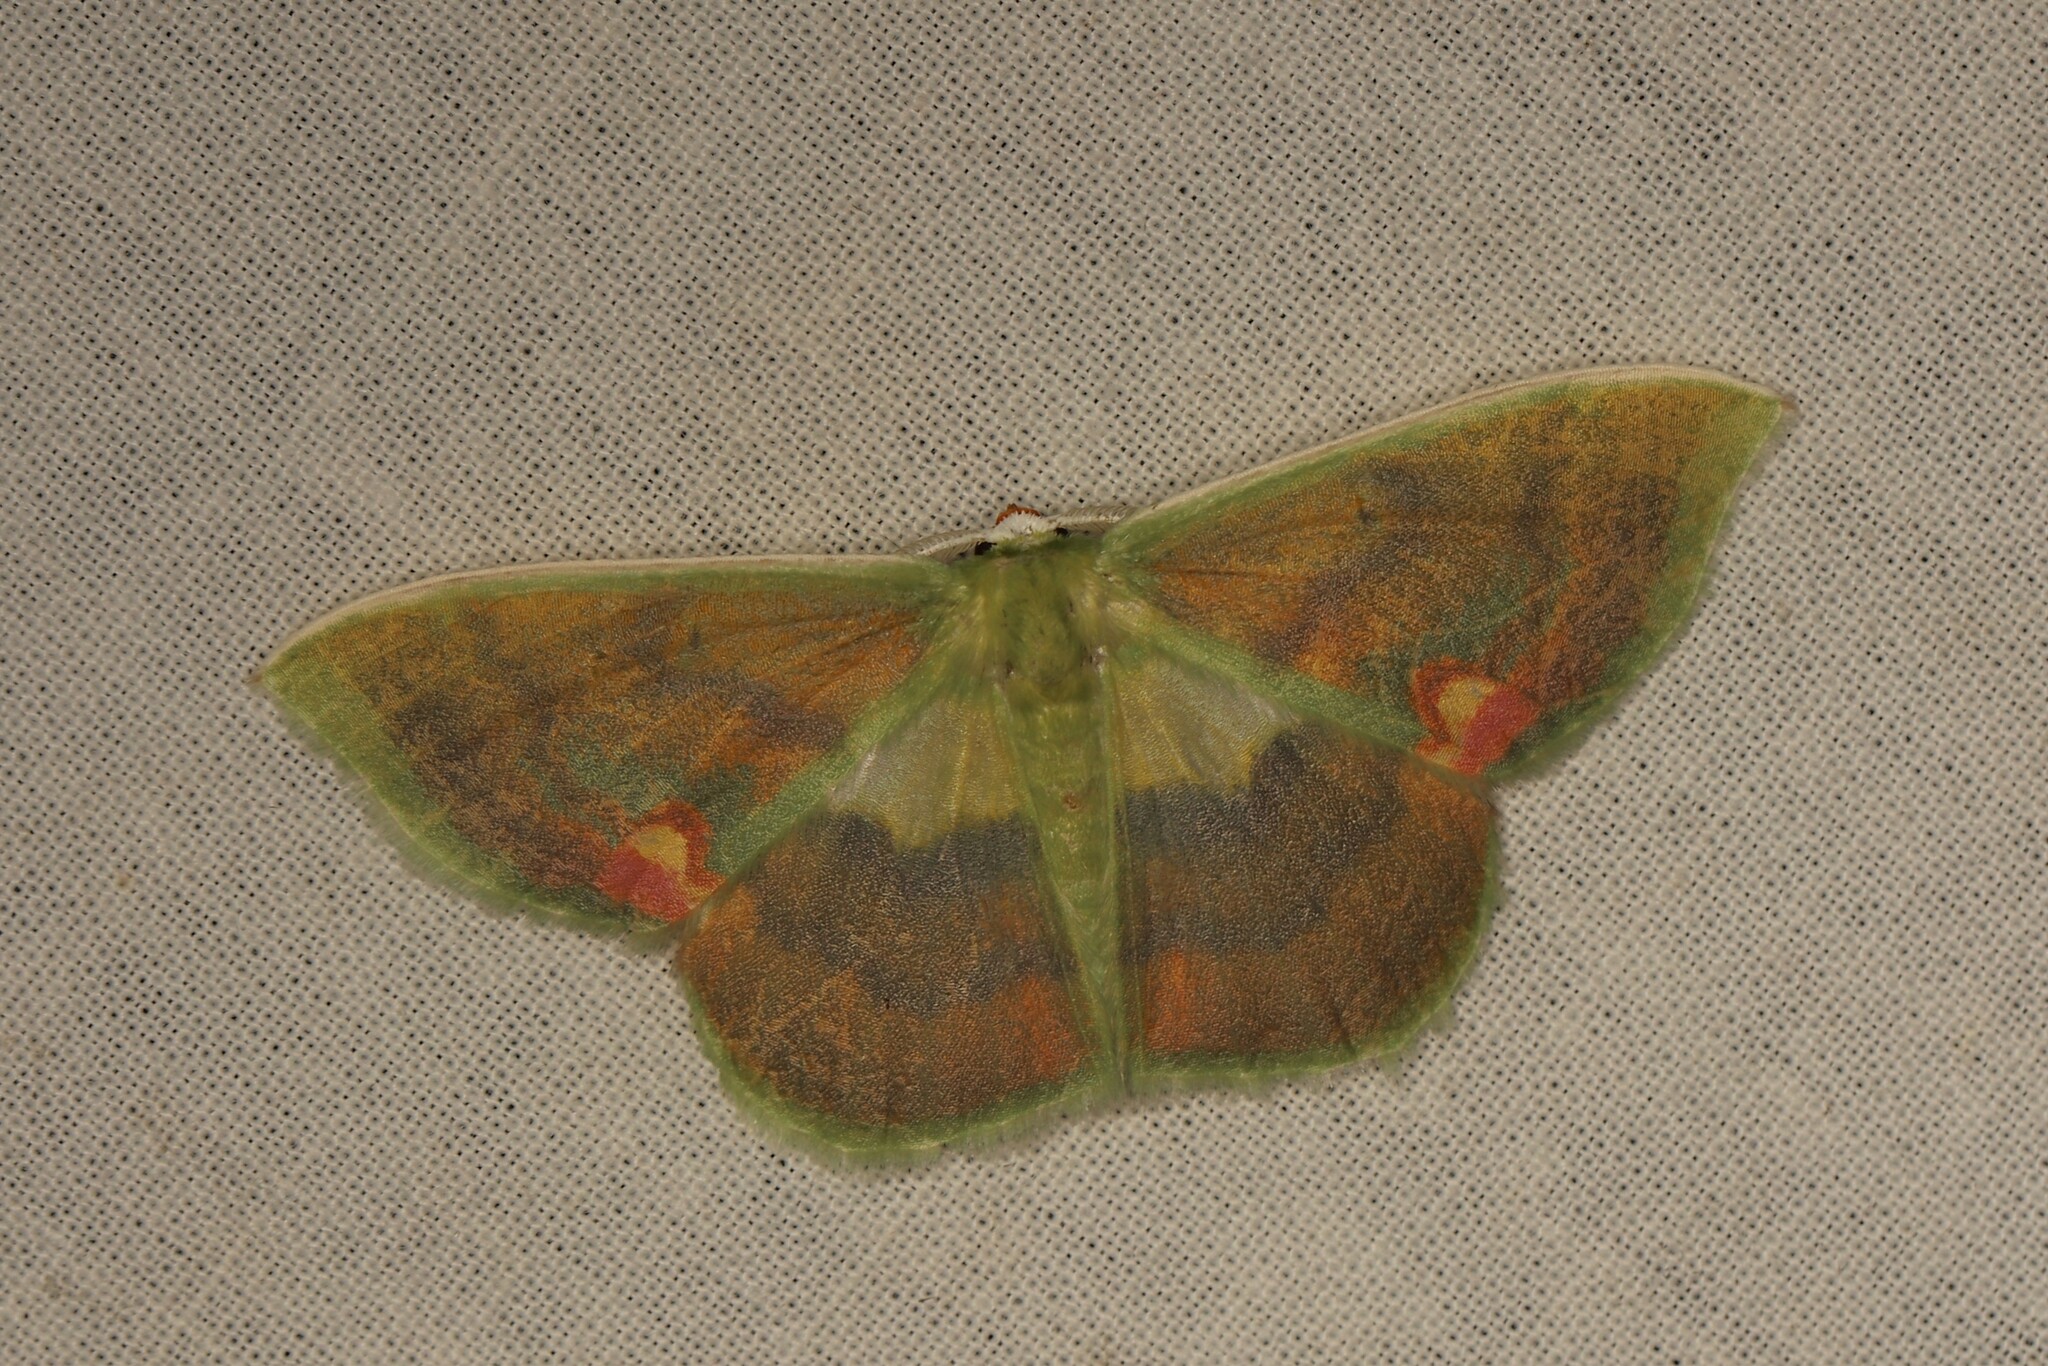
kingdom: Animalia
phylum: Arthropoda
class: Insecta
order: Lepidoptera
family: Geometridae
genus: Rhodochlora
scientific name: Rhodochlora niepelti
